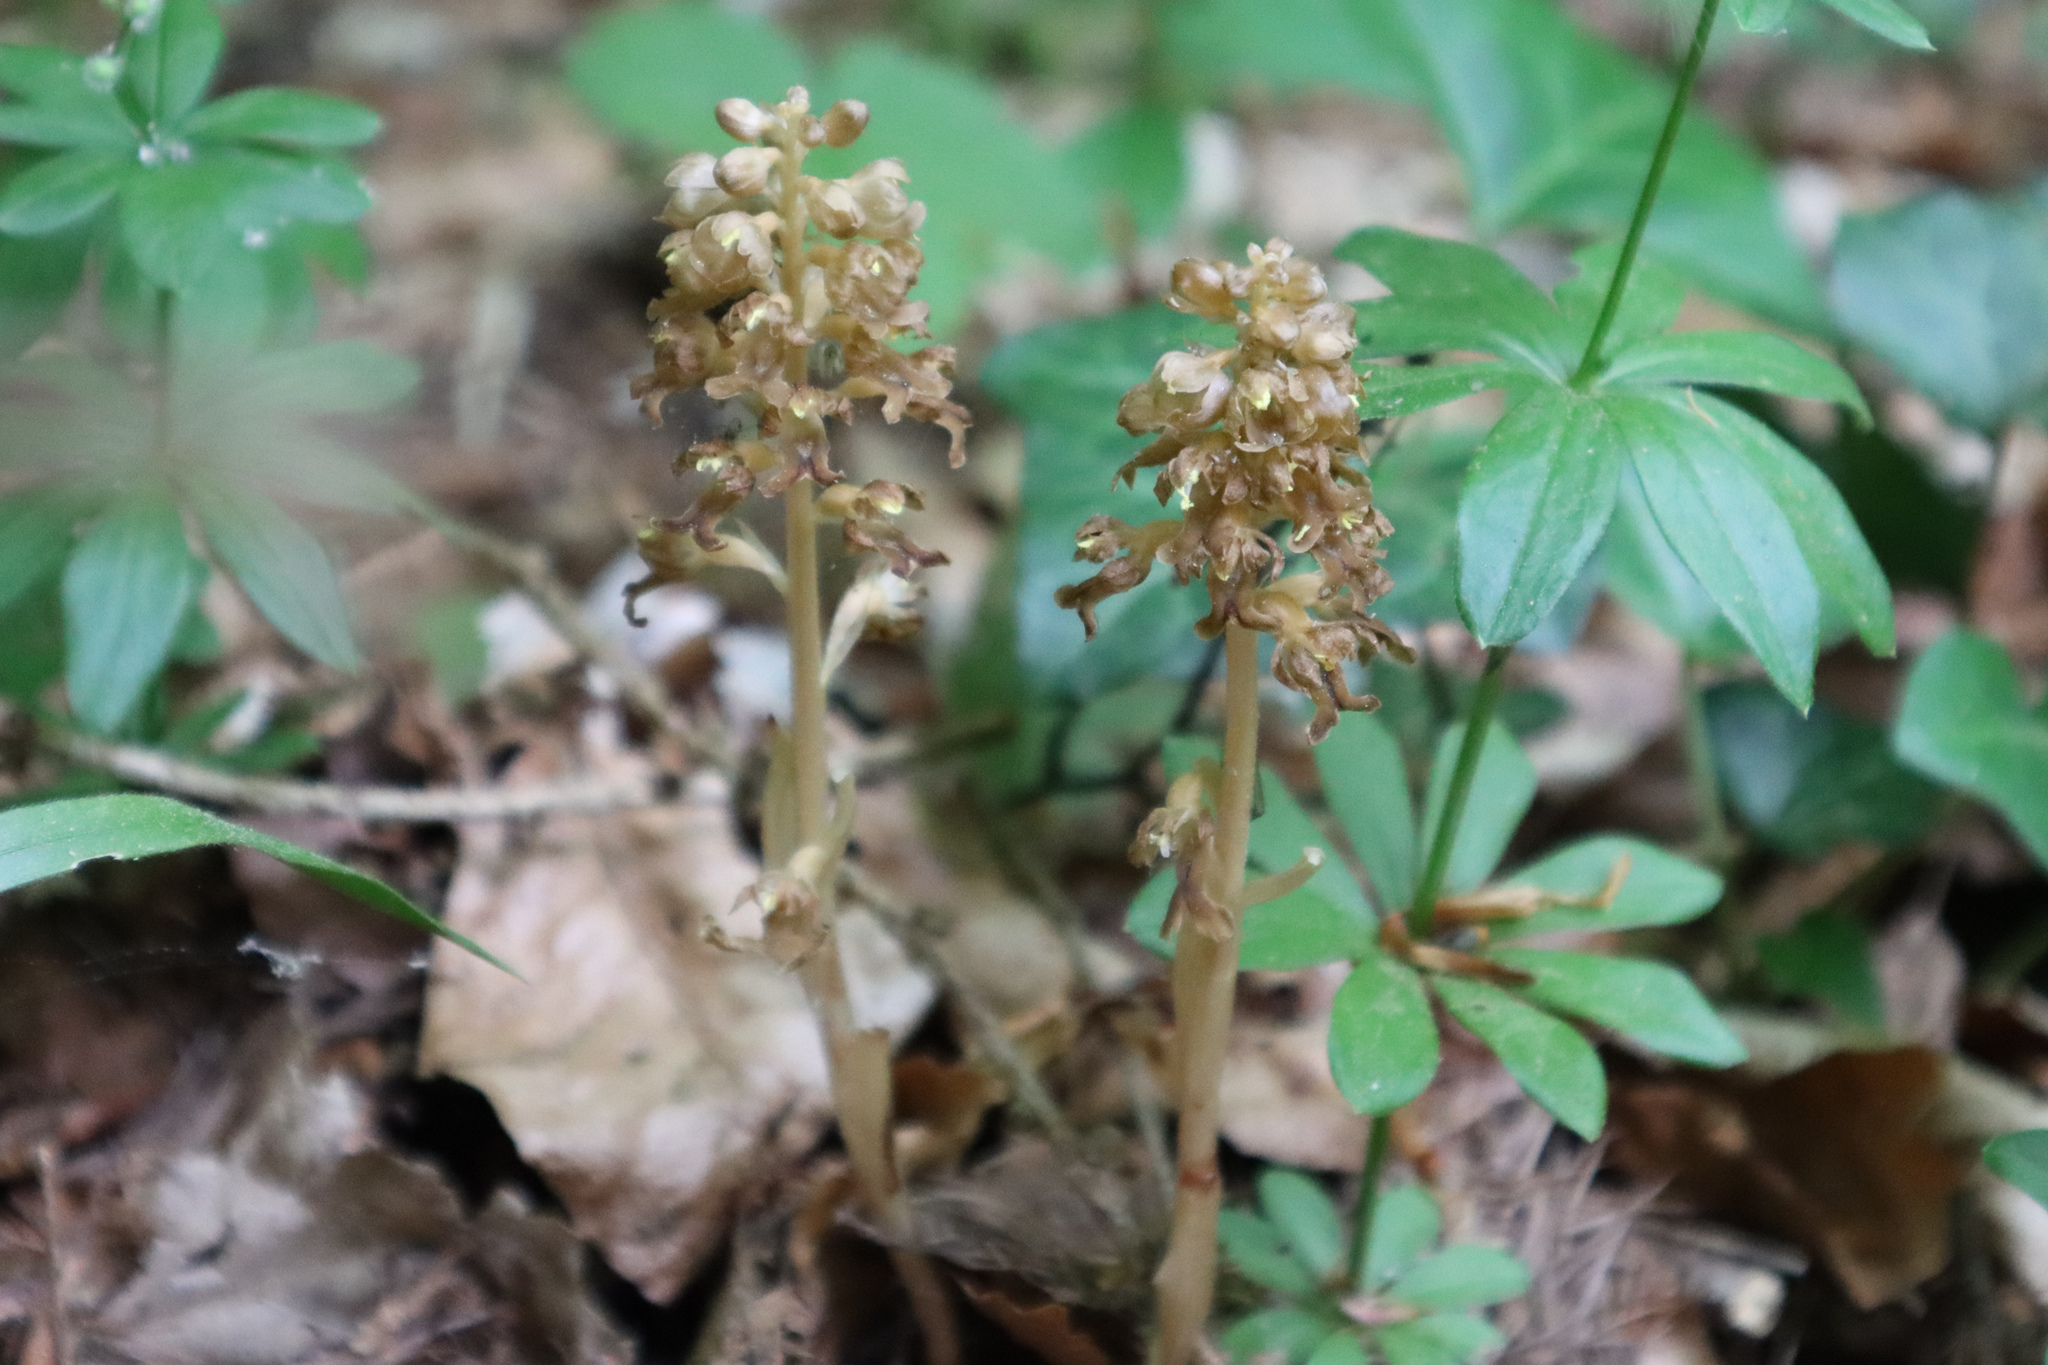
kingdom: Plantae
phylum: Tracheophyta
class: Liliopsida
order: Asparagales
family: Orchidaceae
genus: Neottia
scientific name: Neottia nidus-avis
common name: Bird's-nest orchid
